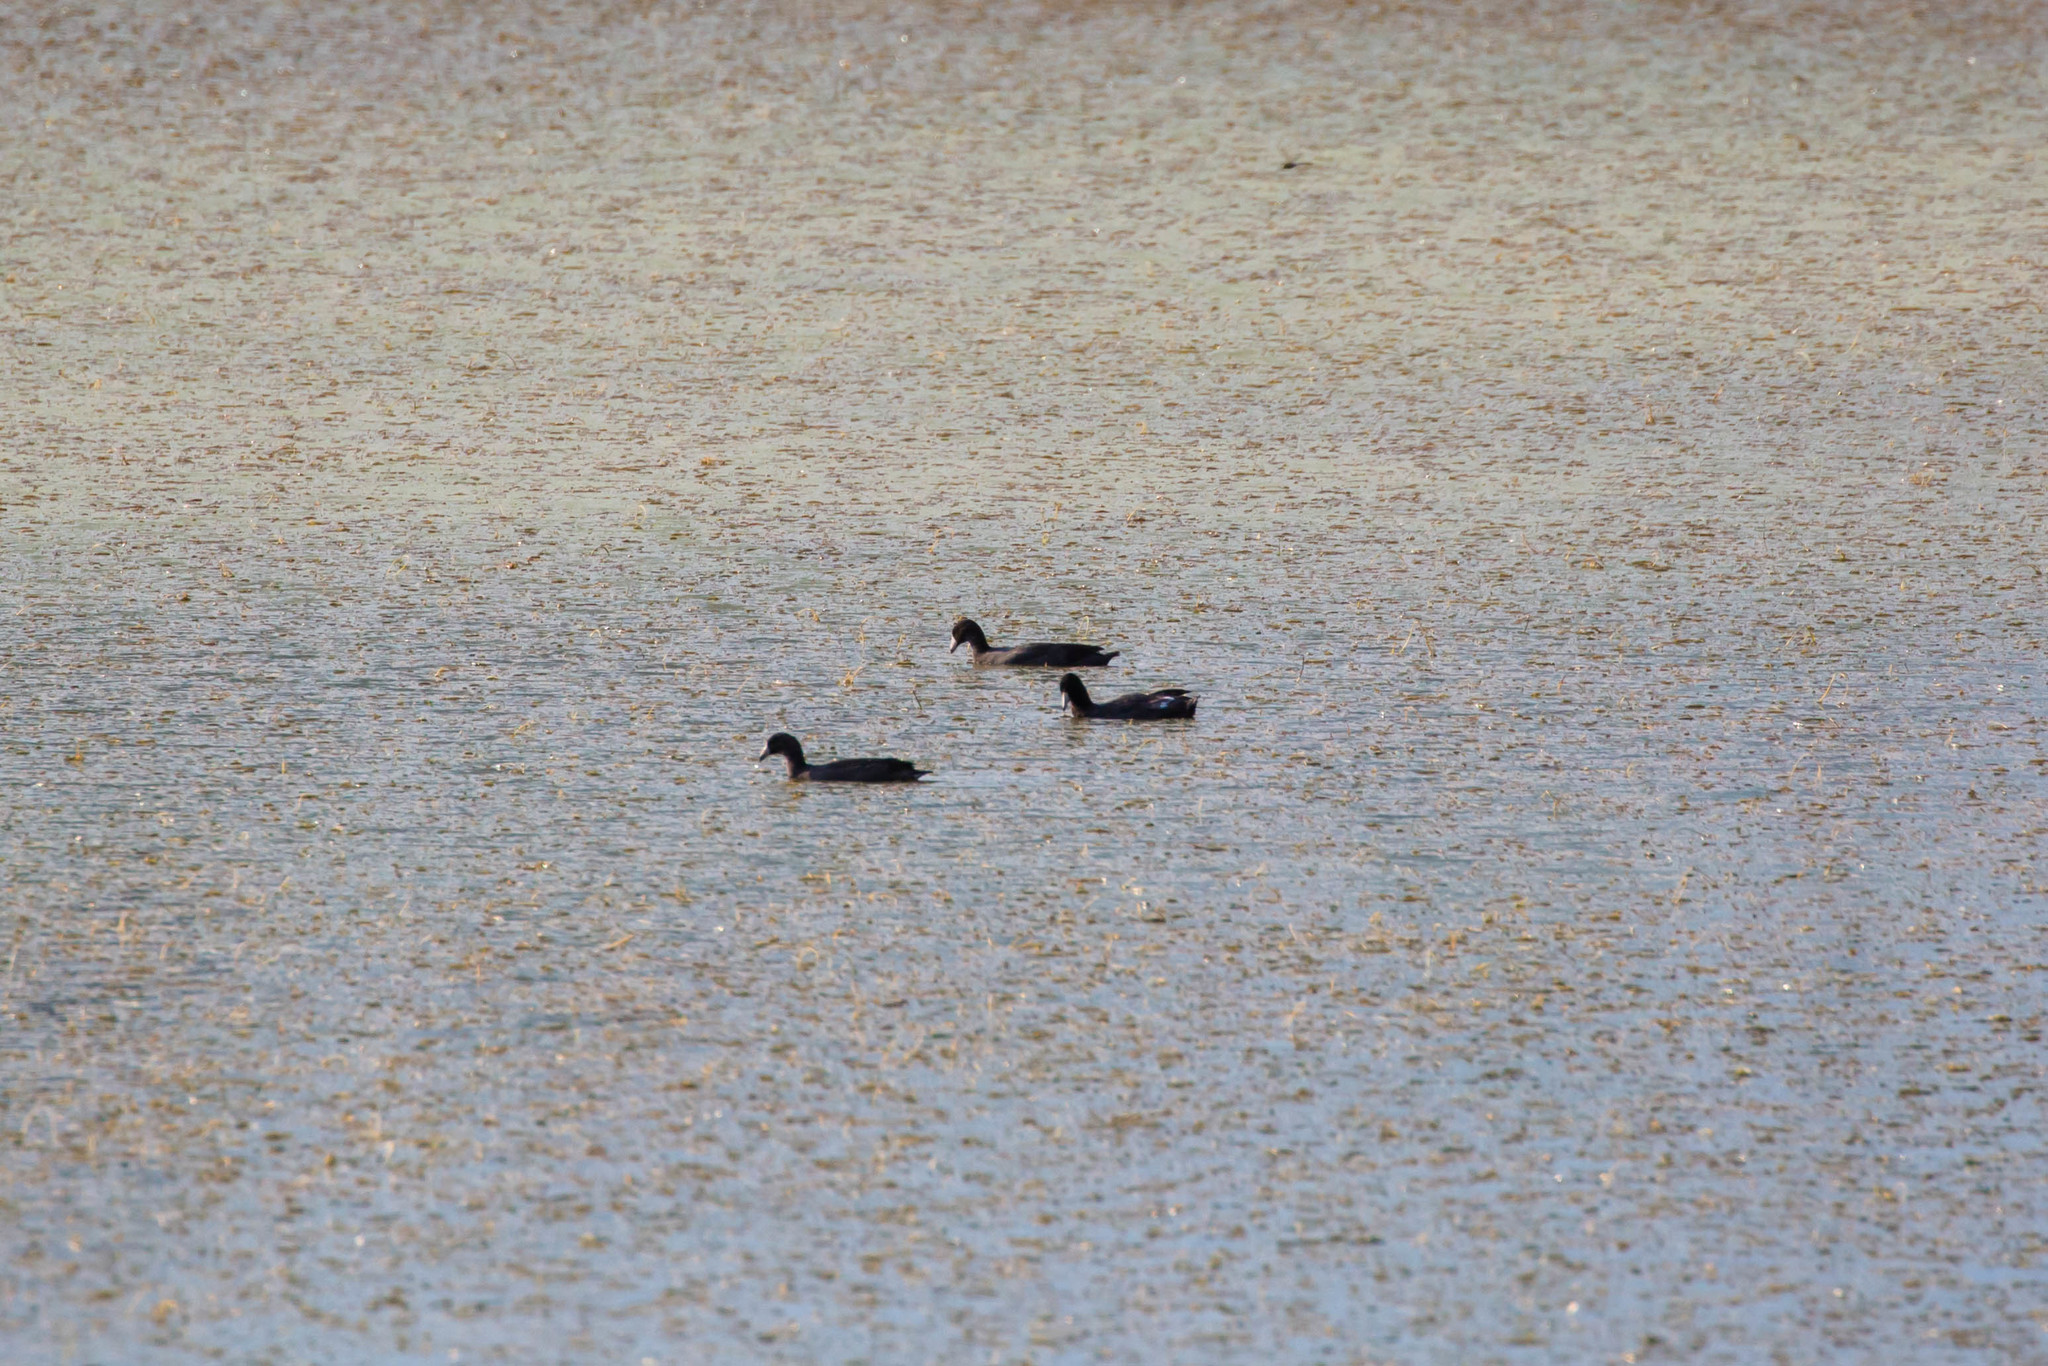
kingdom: Animalia
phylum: Chordata
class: Aves
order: Gruiformes
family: Rallidae
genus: Fulica
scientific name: Fulica americana
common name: American coot
